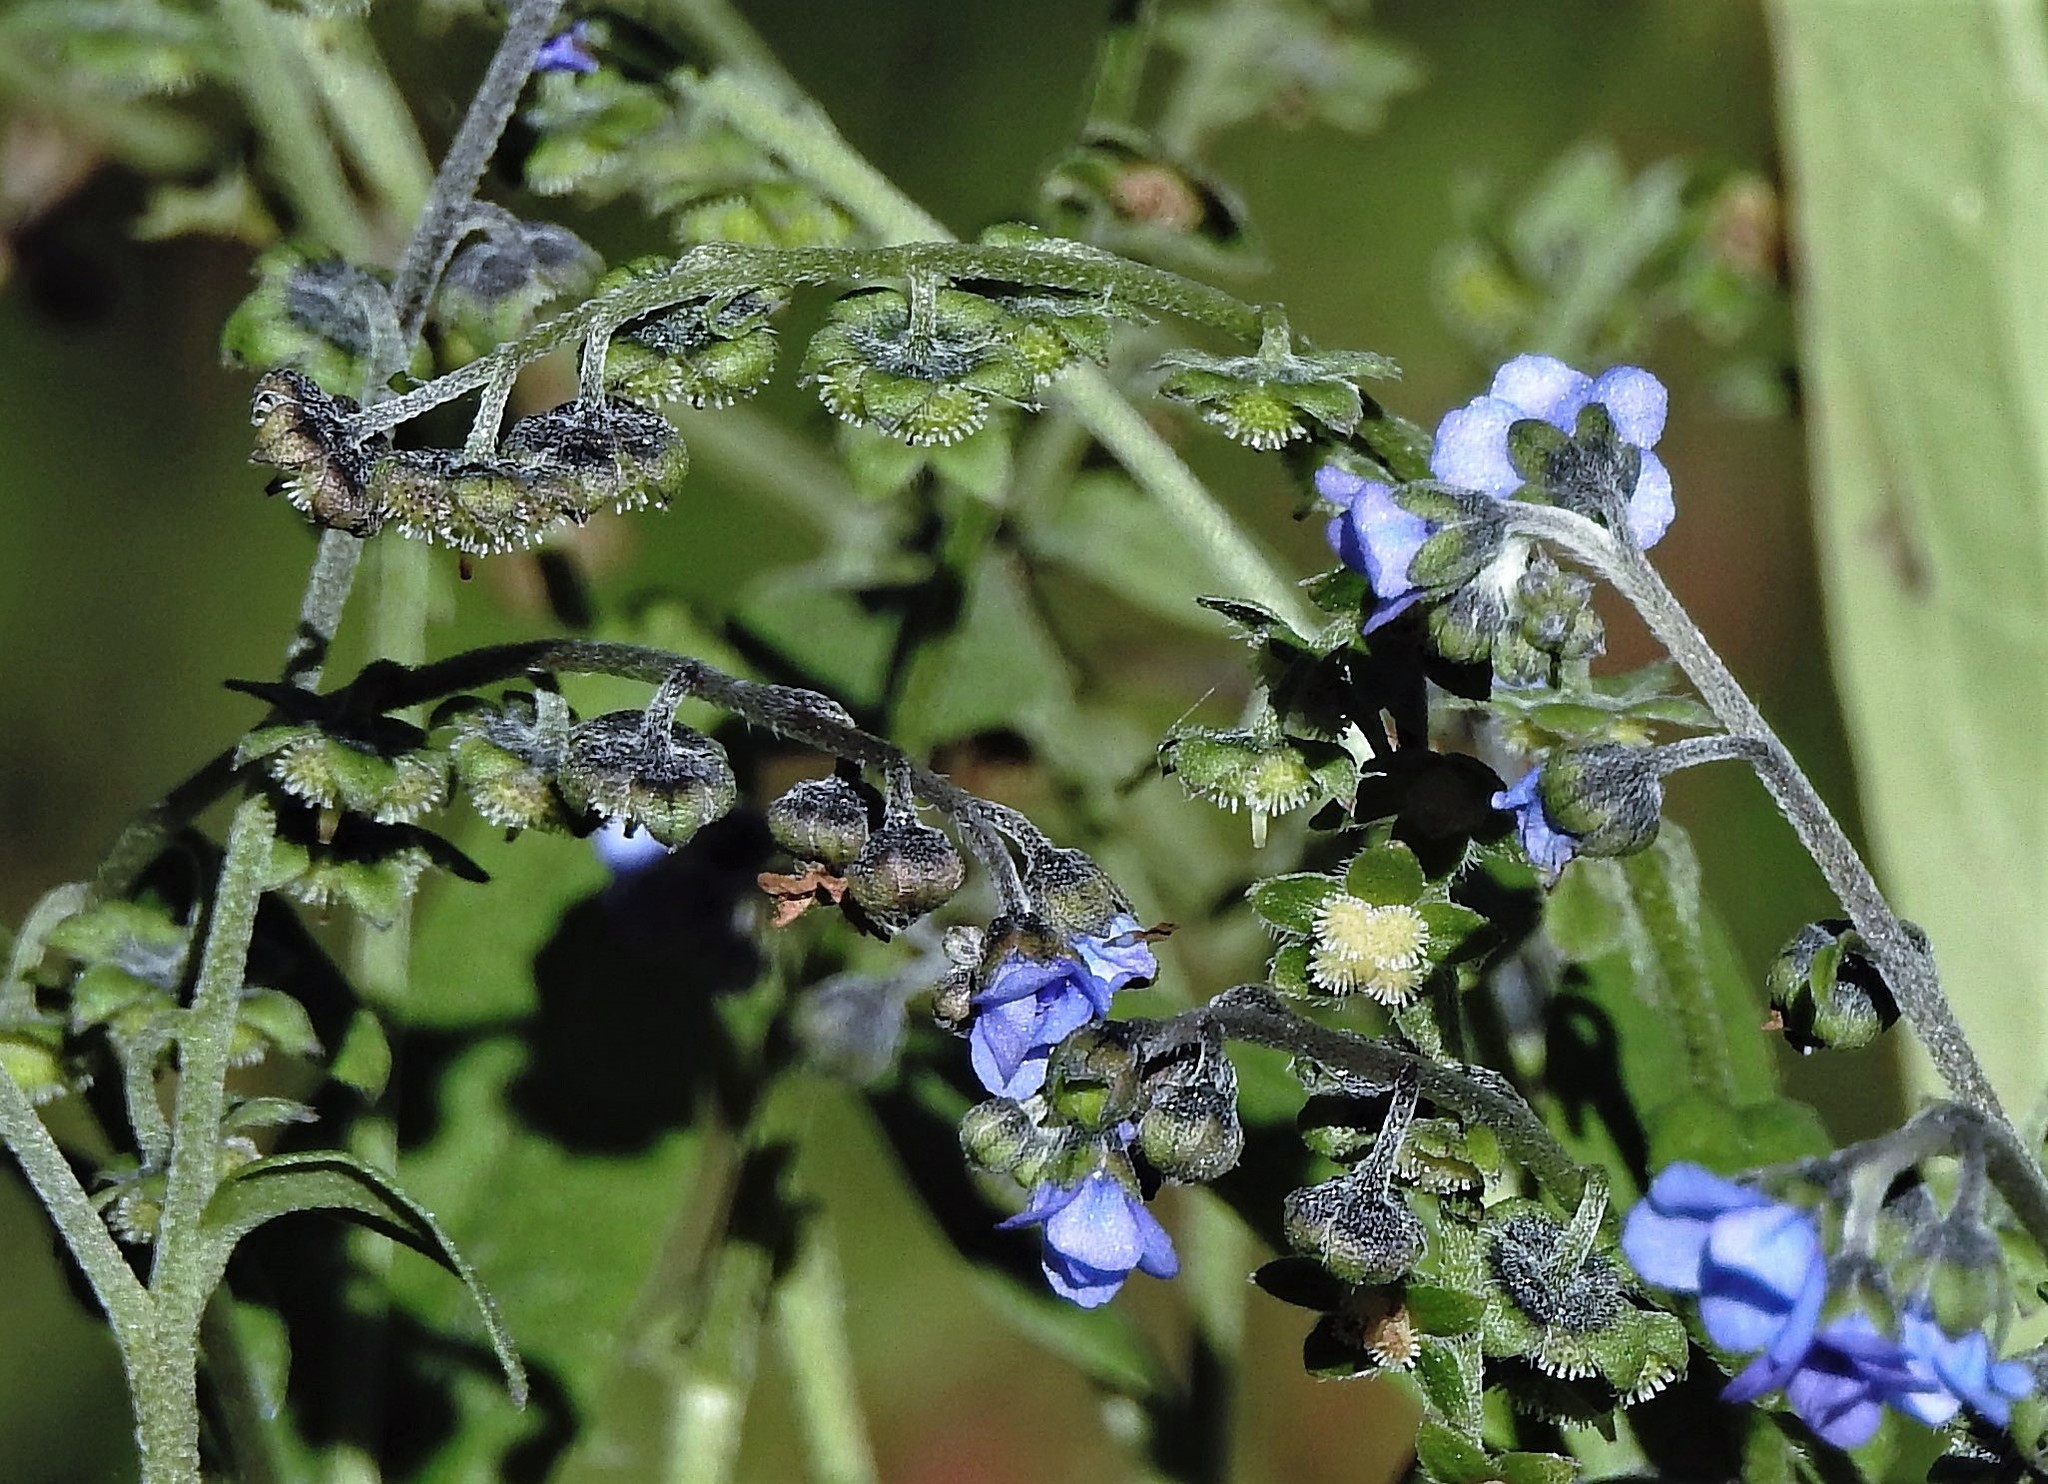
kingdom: Plantae
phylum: Tracheophyta
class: Magnoliopsida
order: Boraginales
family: Boraginaceae
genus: Cynoglossum
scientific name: Cynoglossum amabile
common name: Chinese hound's tongue
